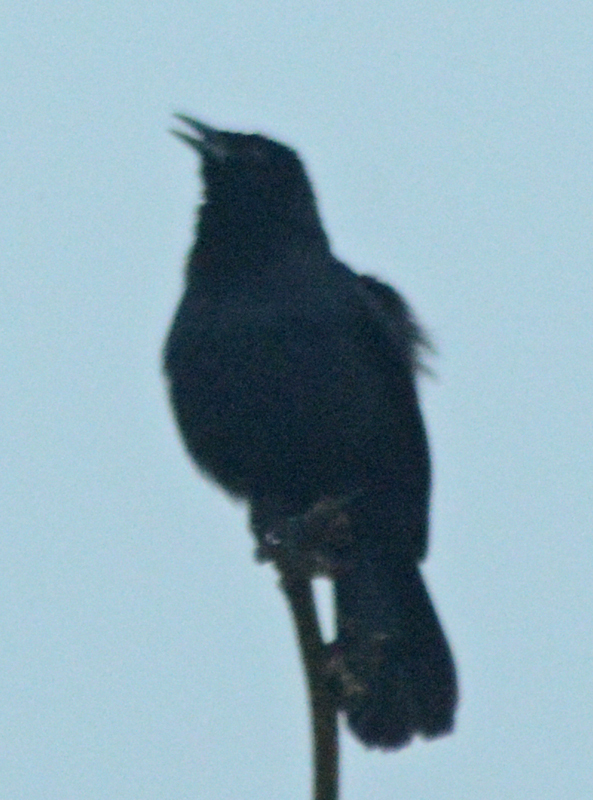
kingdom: Animalia
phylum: Chordata
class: Aves
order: Passeriformes
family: Icteridae
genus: Dives
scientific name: Dives dives
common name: Melodious blackbird
